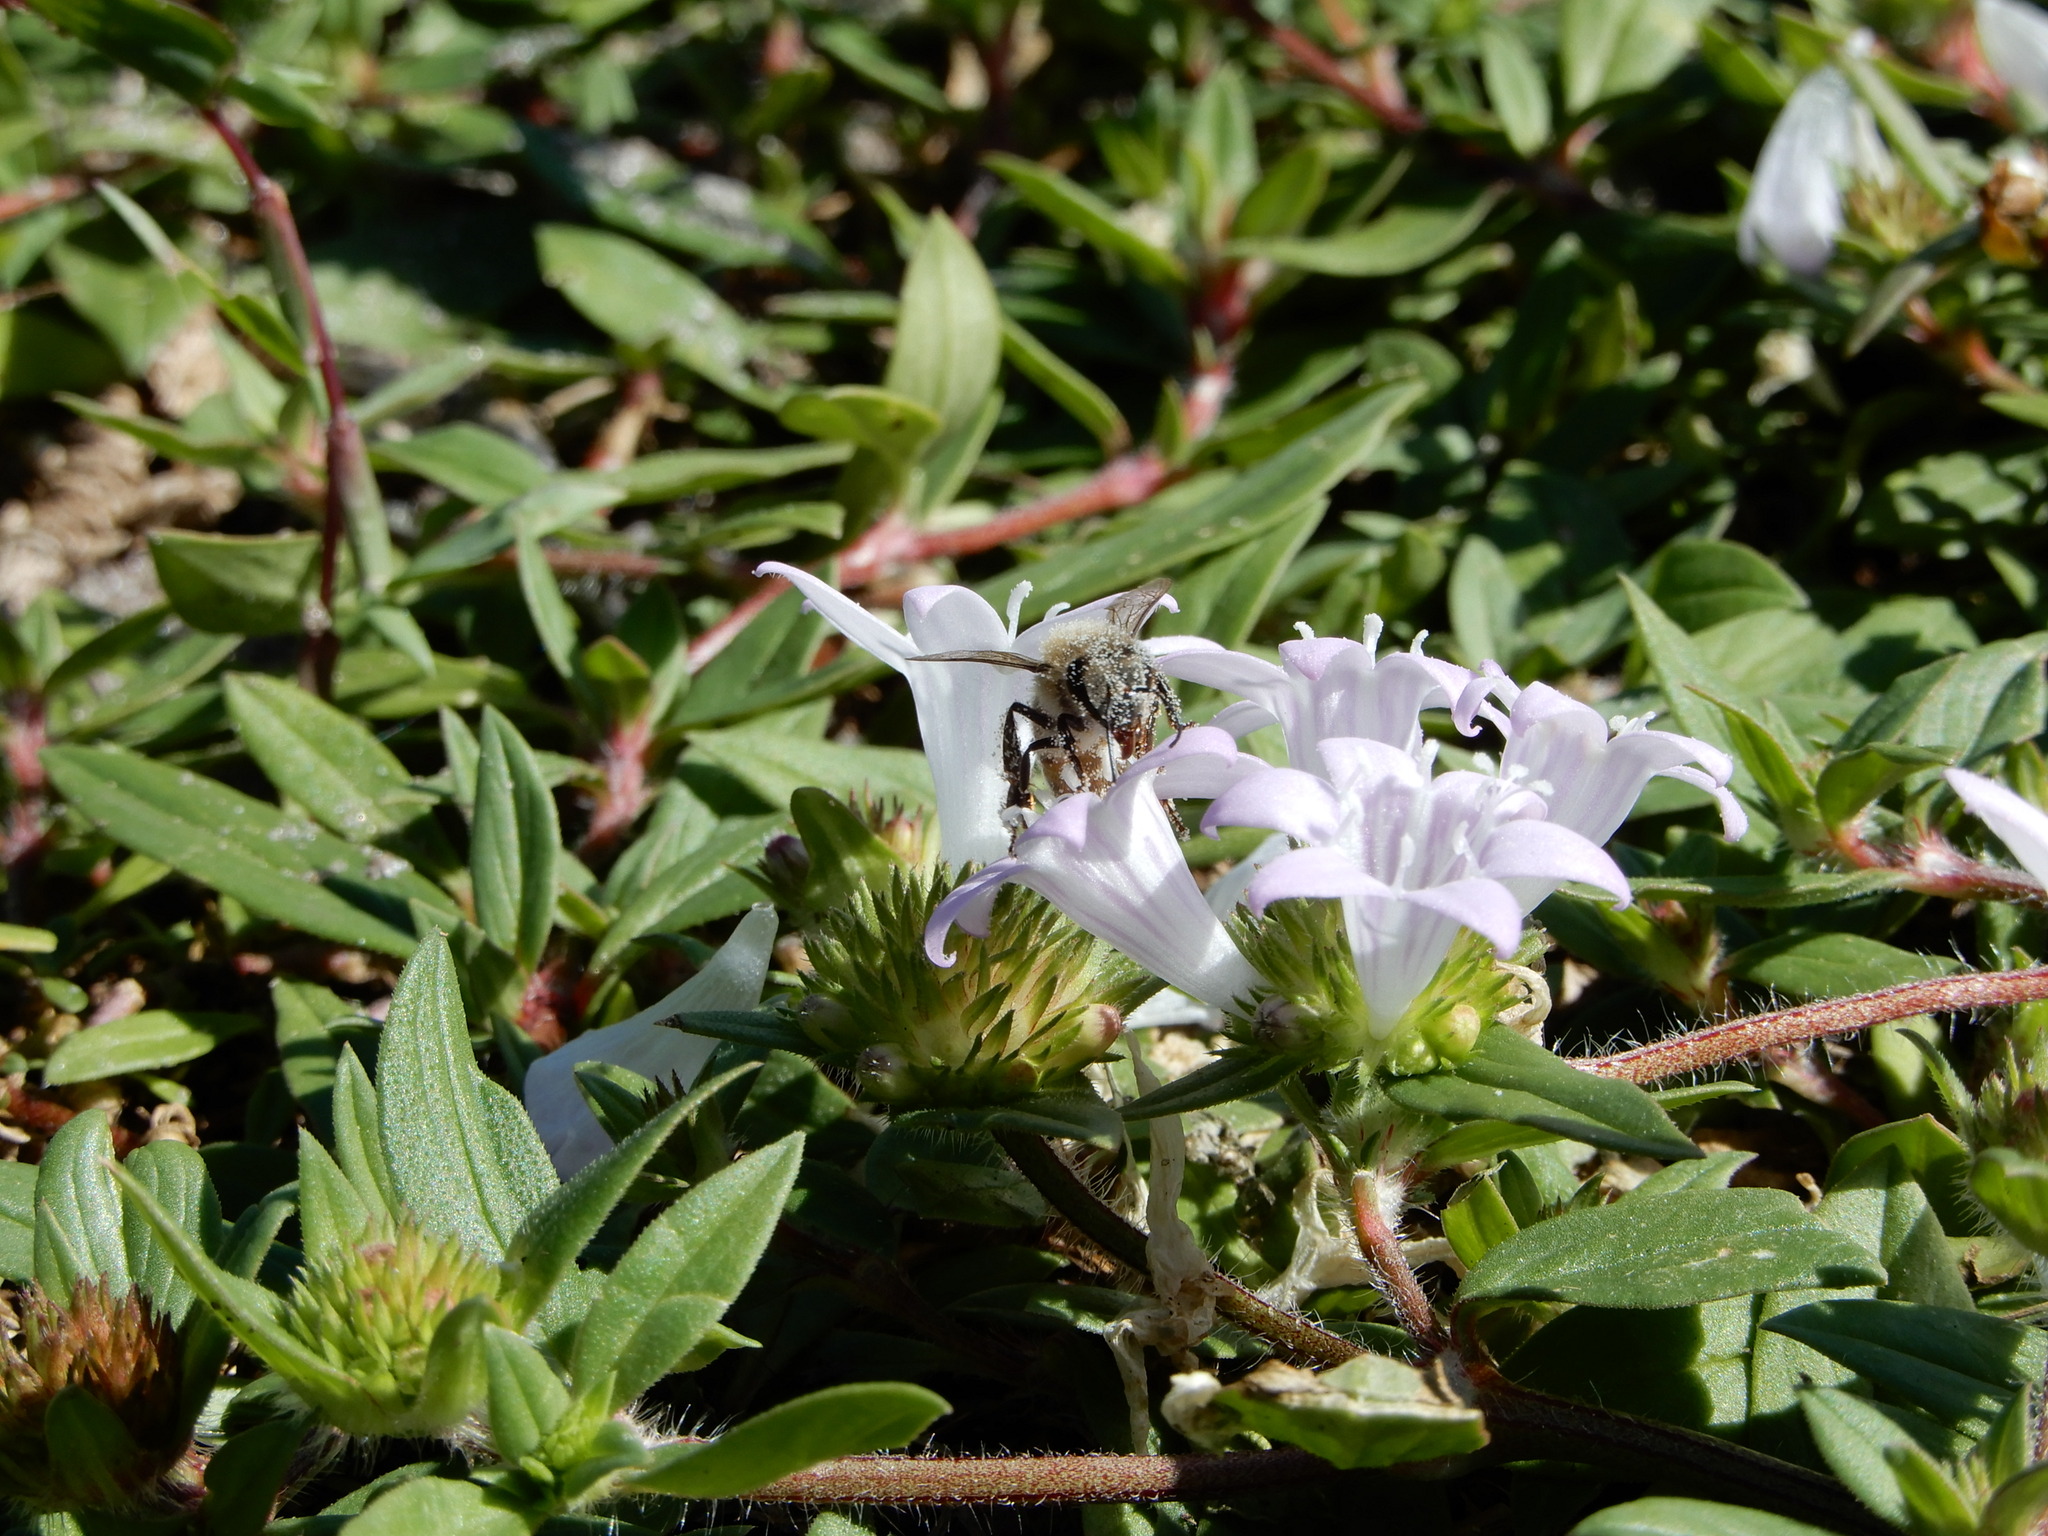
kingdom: Plantae
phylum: Tracheophyta
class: Magnoliopsida
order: Gentianales
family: Rubiaceae
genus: Richardia
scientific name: Richardia grandiflora
